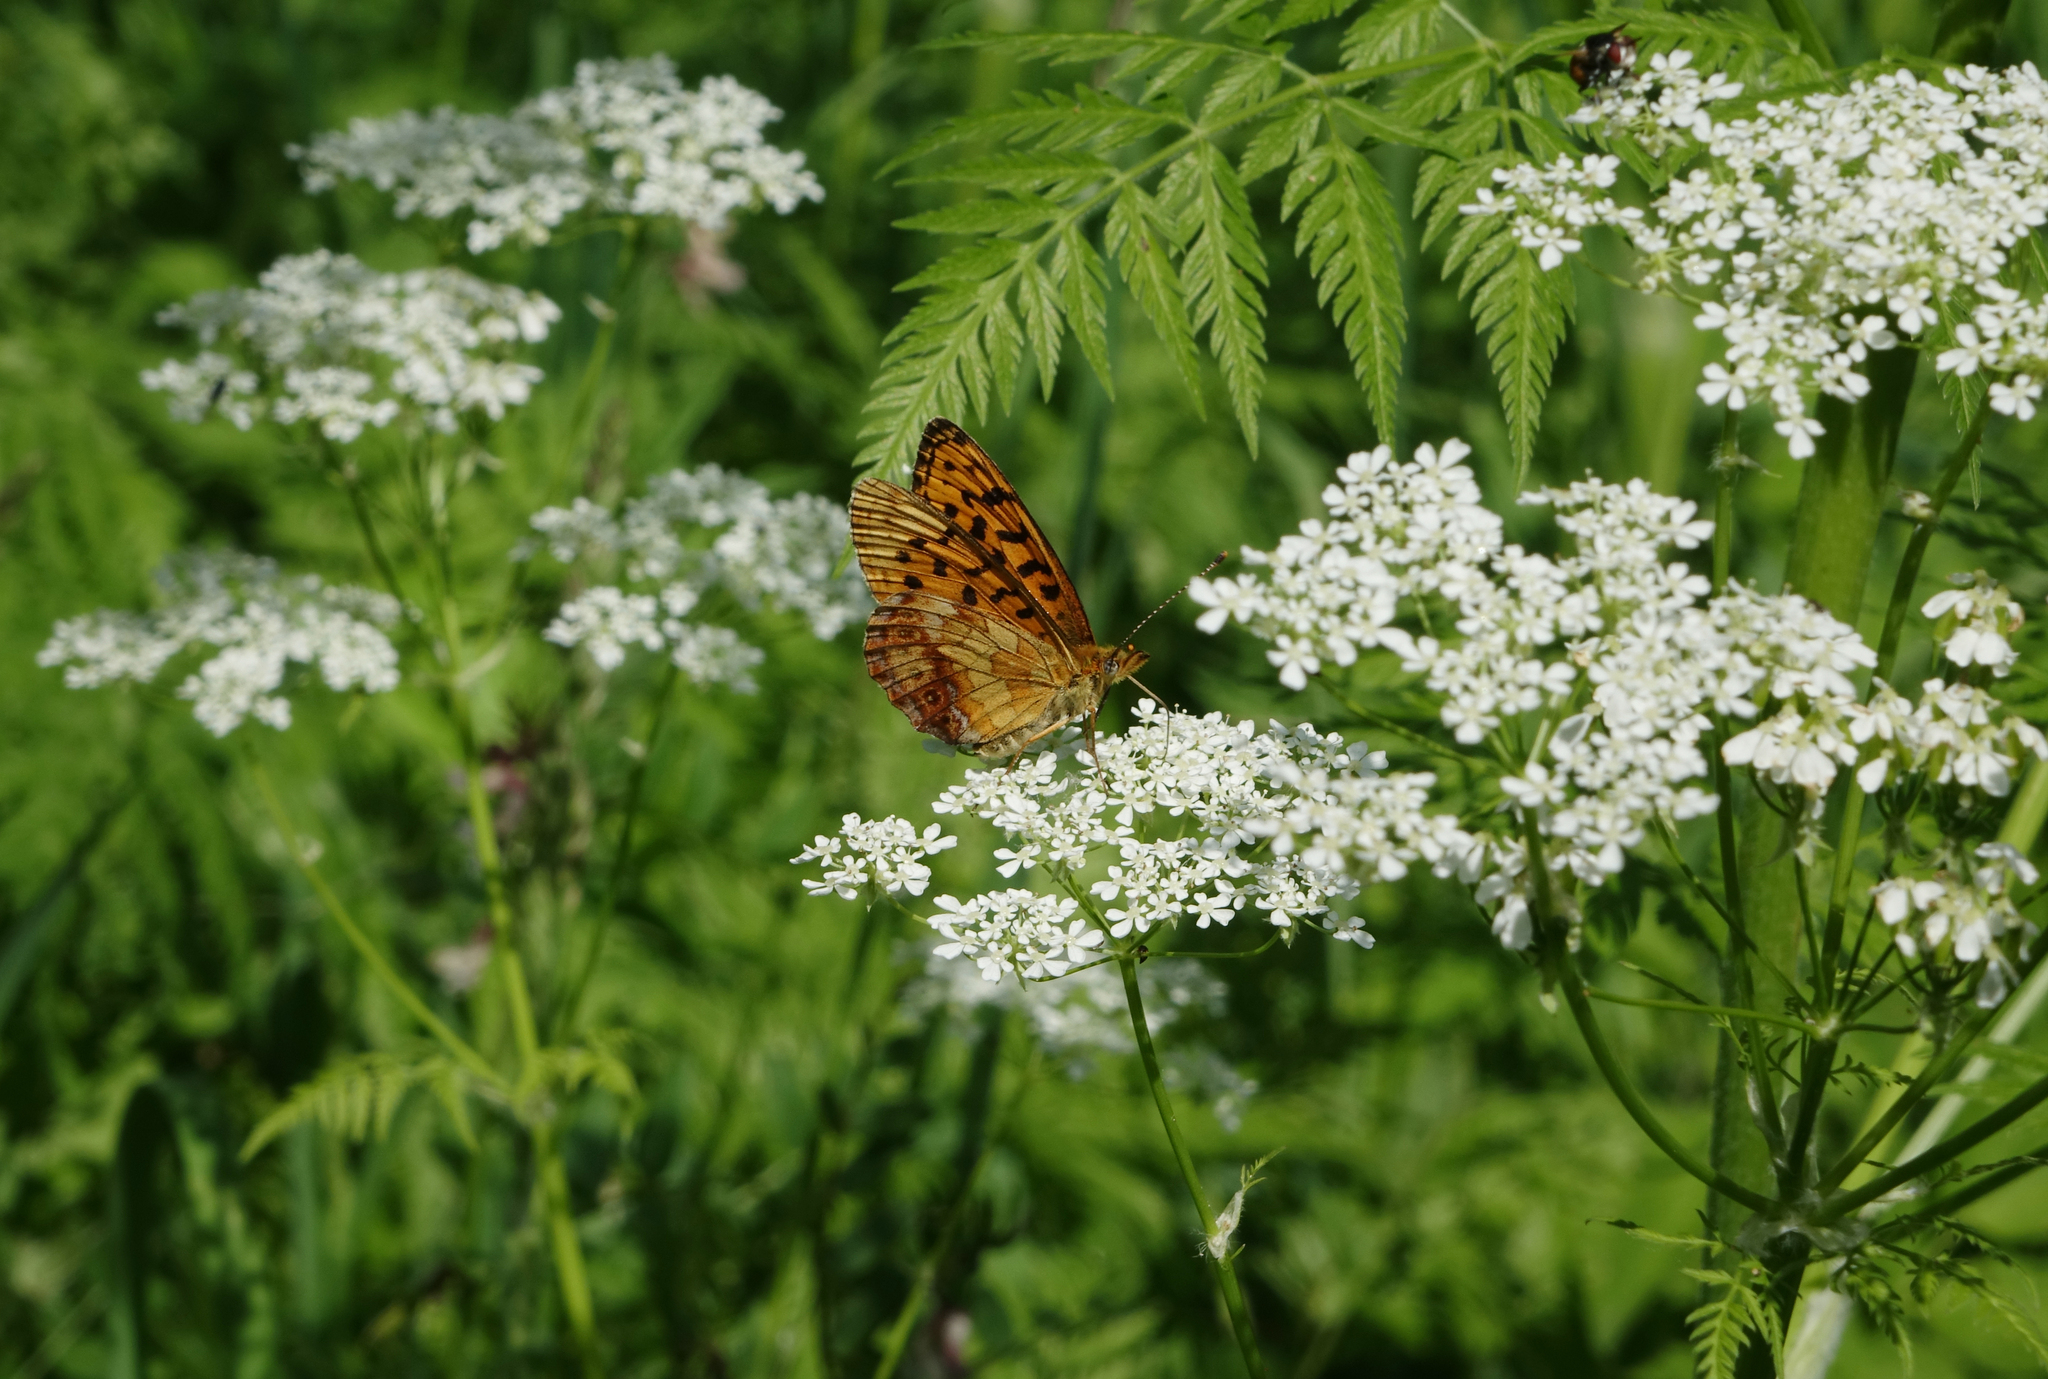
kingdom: Animalia
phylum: Arthropoda
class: Insecta
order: Lepidoptera
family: Nymphalidae
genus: Boloria
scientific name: Boloria thore
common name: Thor's fritillary
